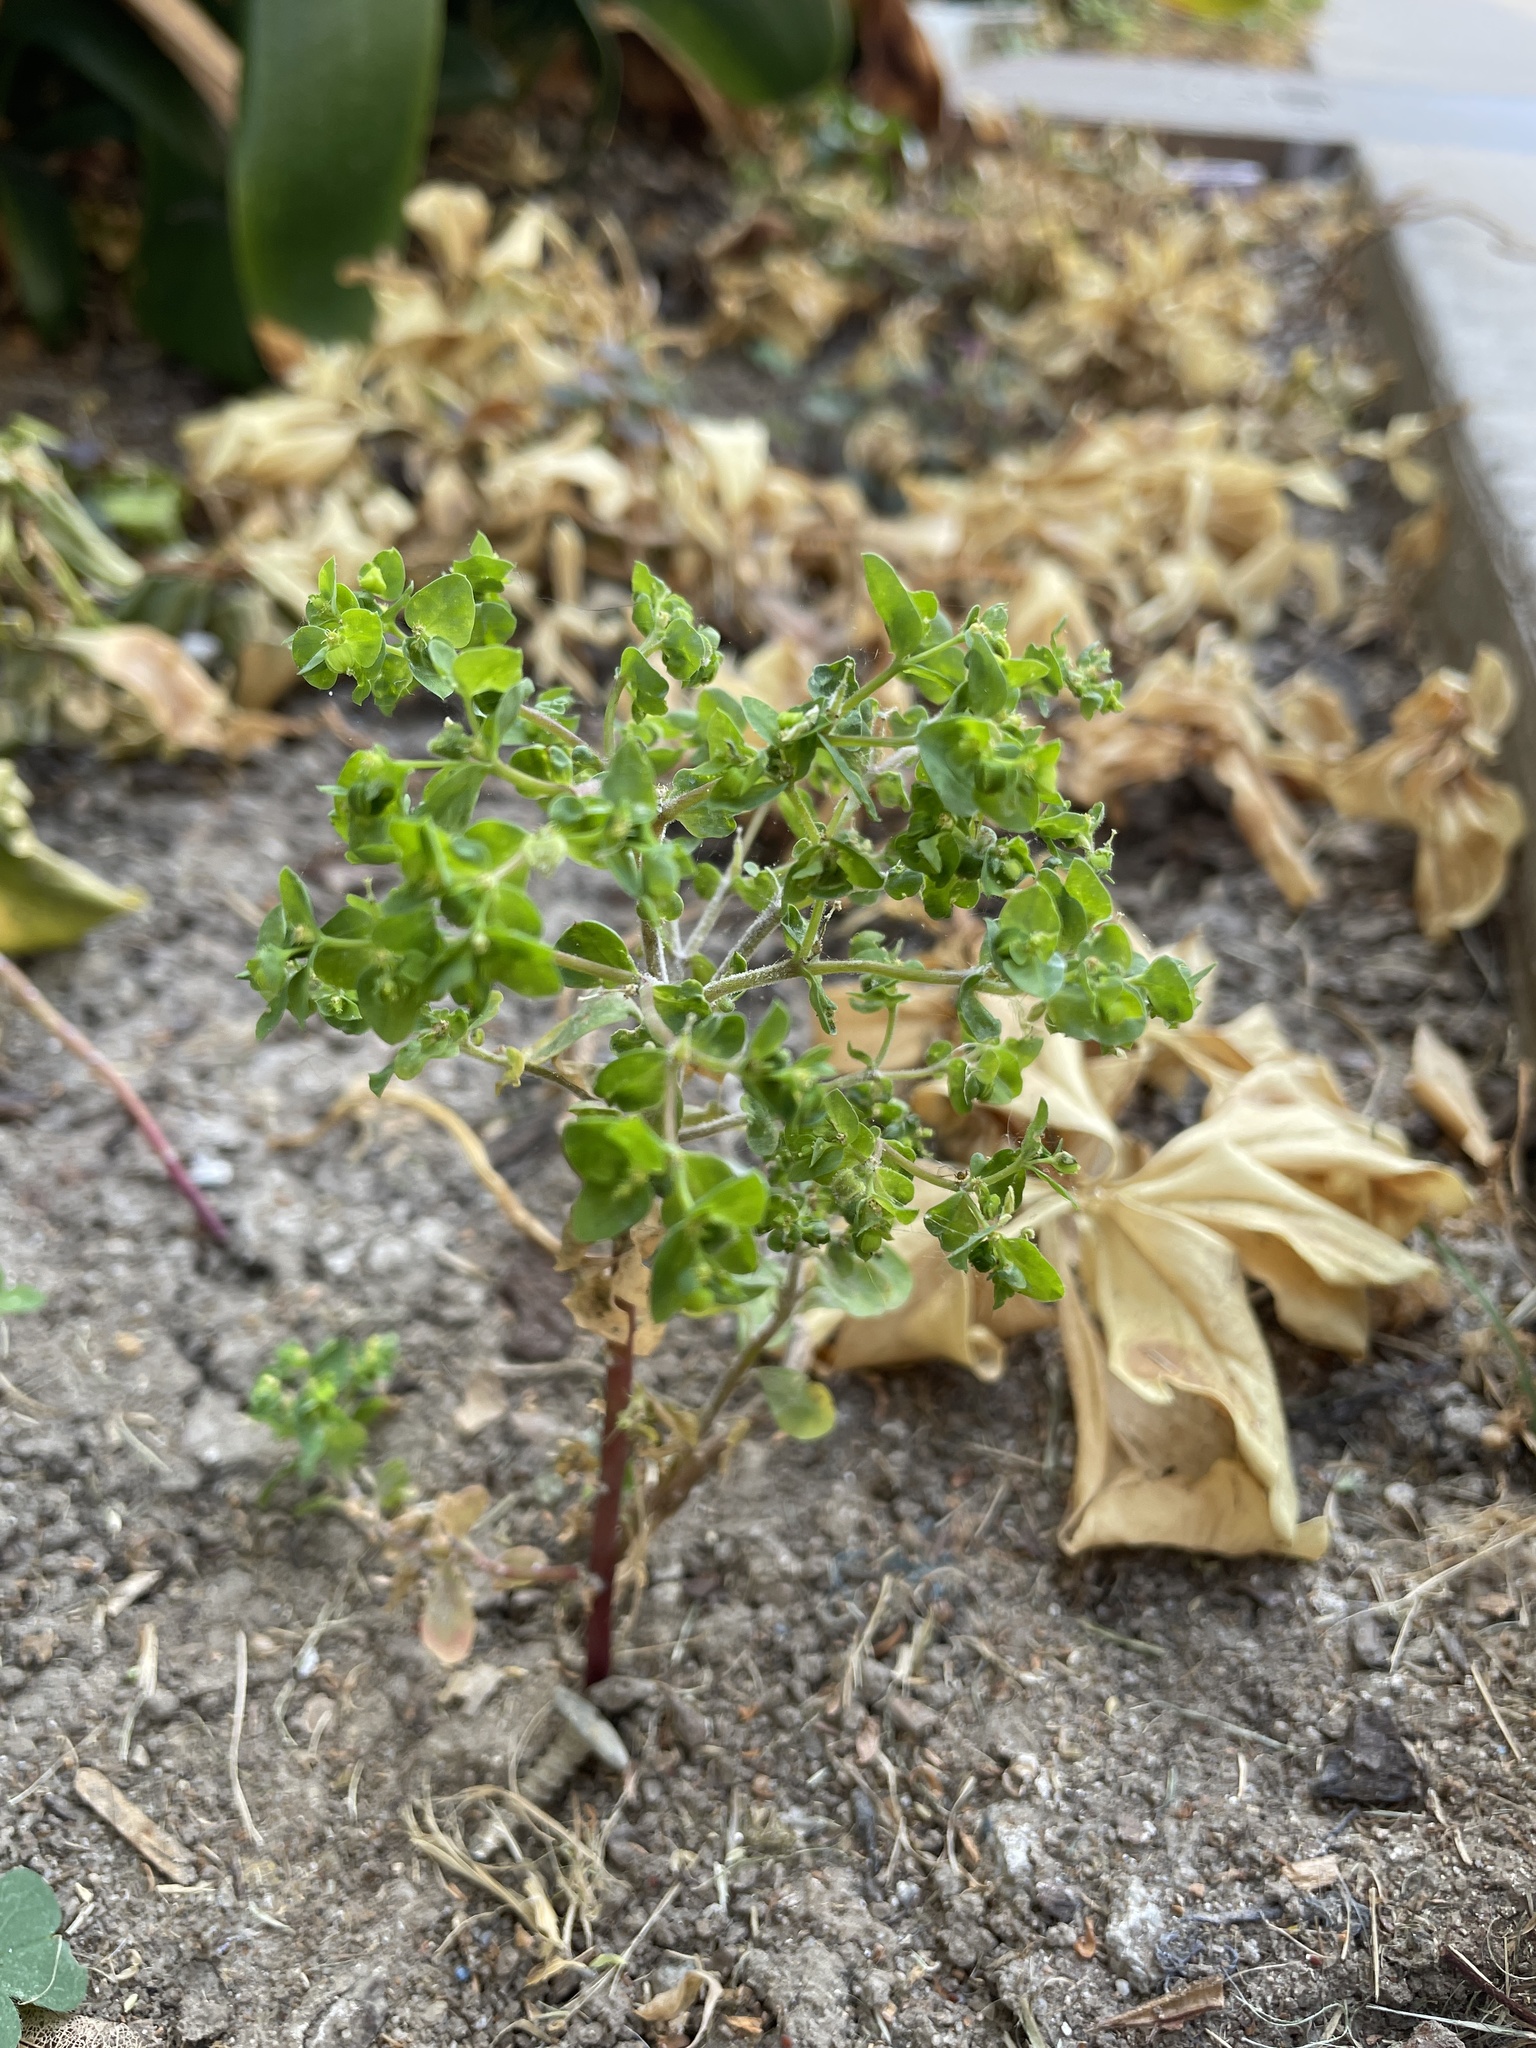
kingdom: Plantae
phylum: Tracheophyta
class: Magnoliopsida
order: Malpighiales
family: Euphorbiaceae
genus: Euphorbia
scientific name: Euphorbia peplus
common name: Petty spurge
